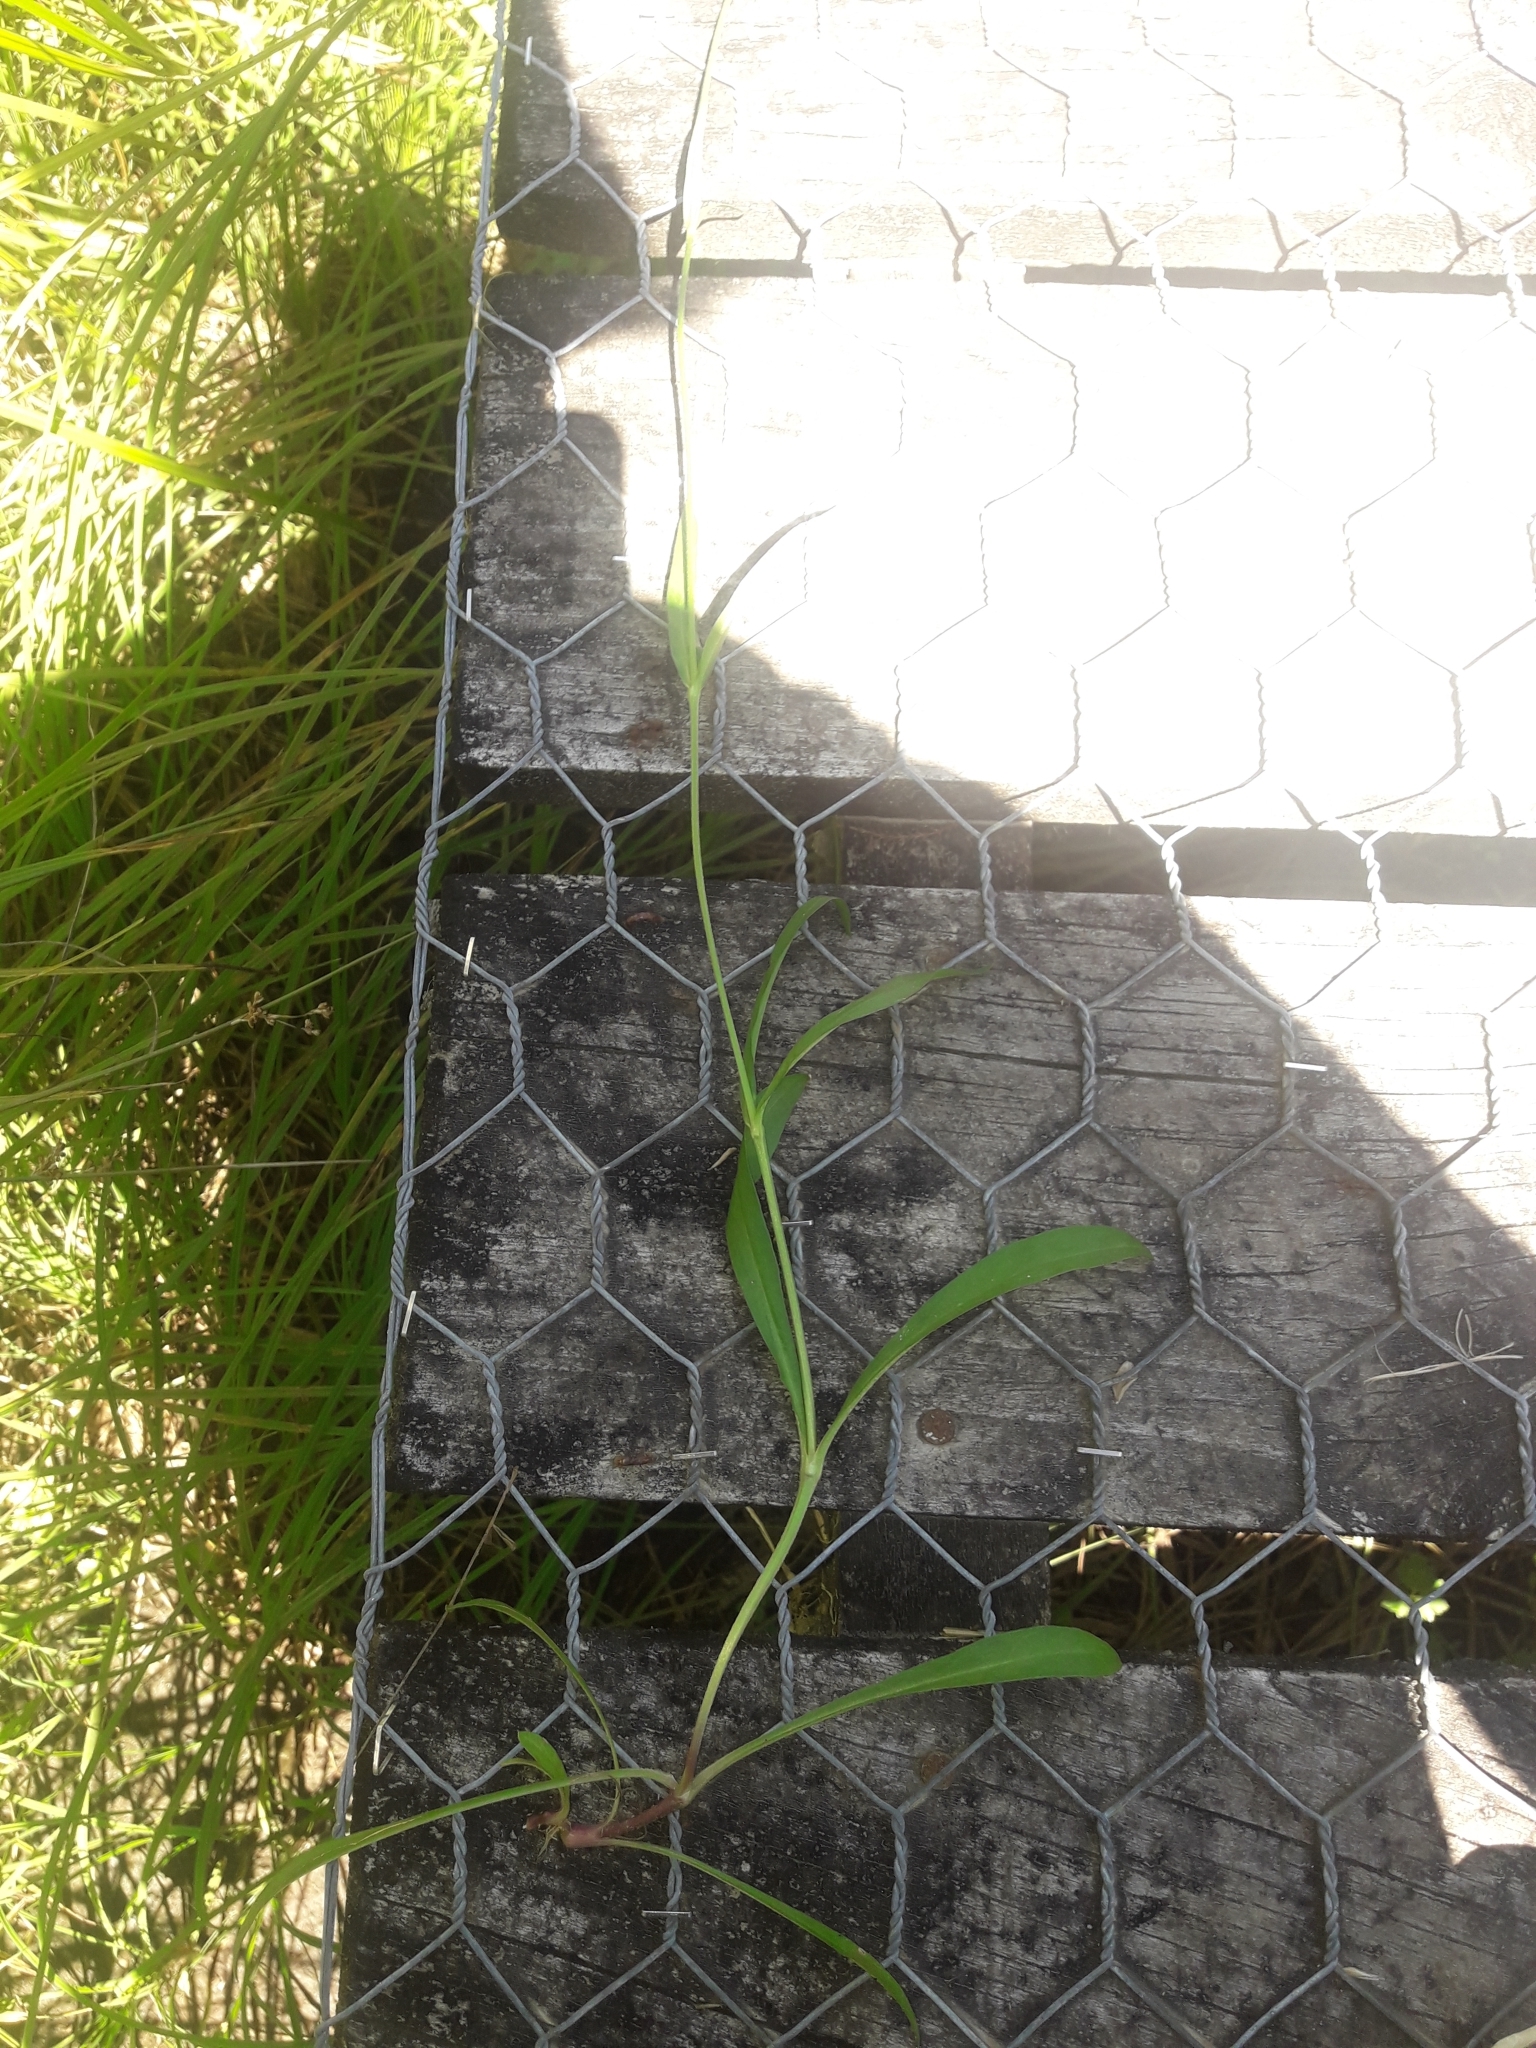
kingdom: Plantae
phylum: Tracheophyta
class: Magnoliopsida
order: Caryophyllales
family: Caryophyllaceae
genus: Silene
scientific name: Silene flos-cuculi
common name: Ragged-robin
